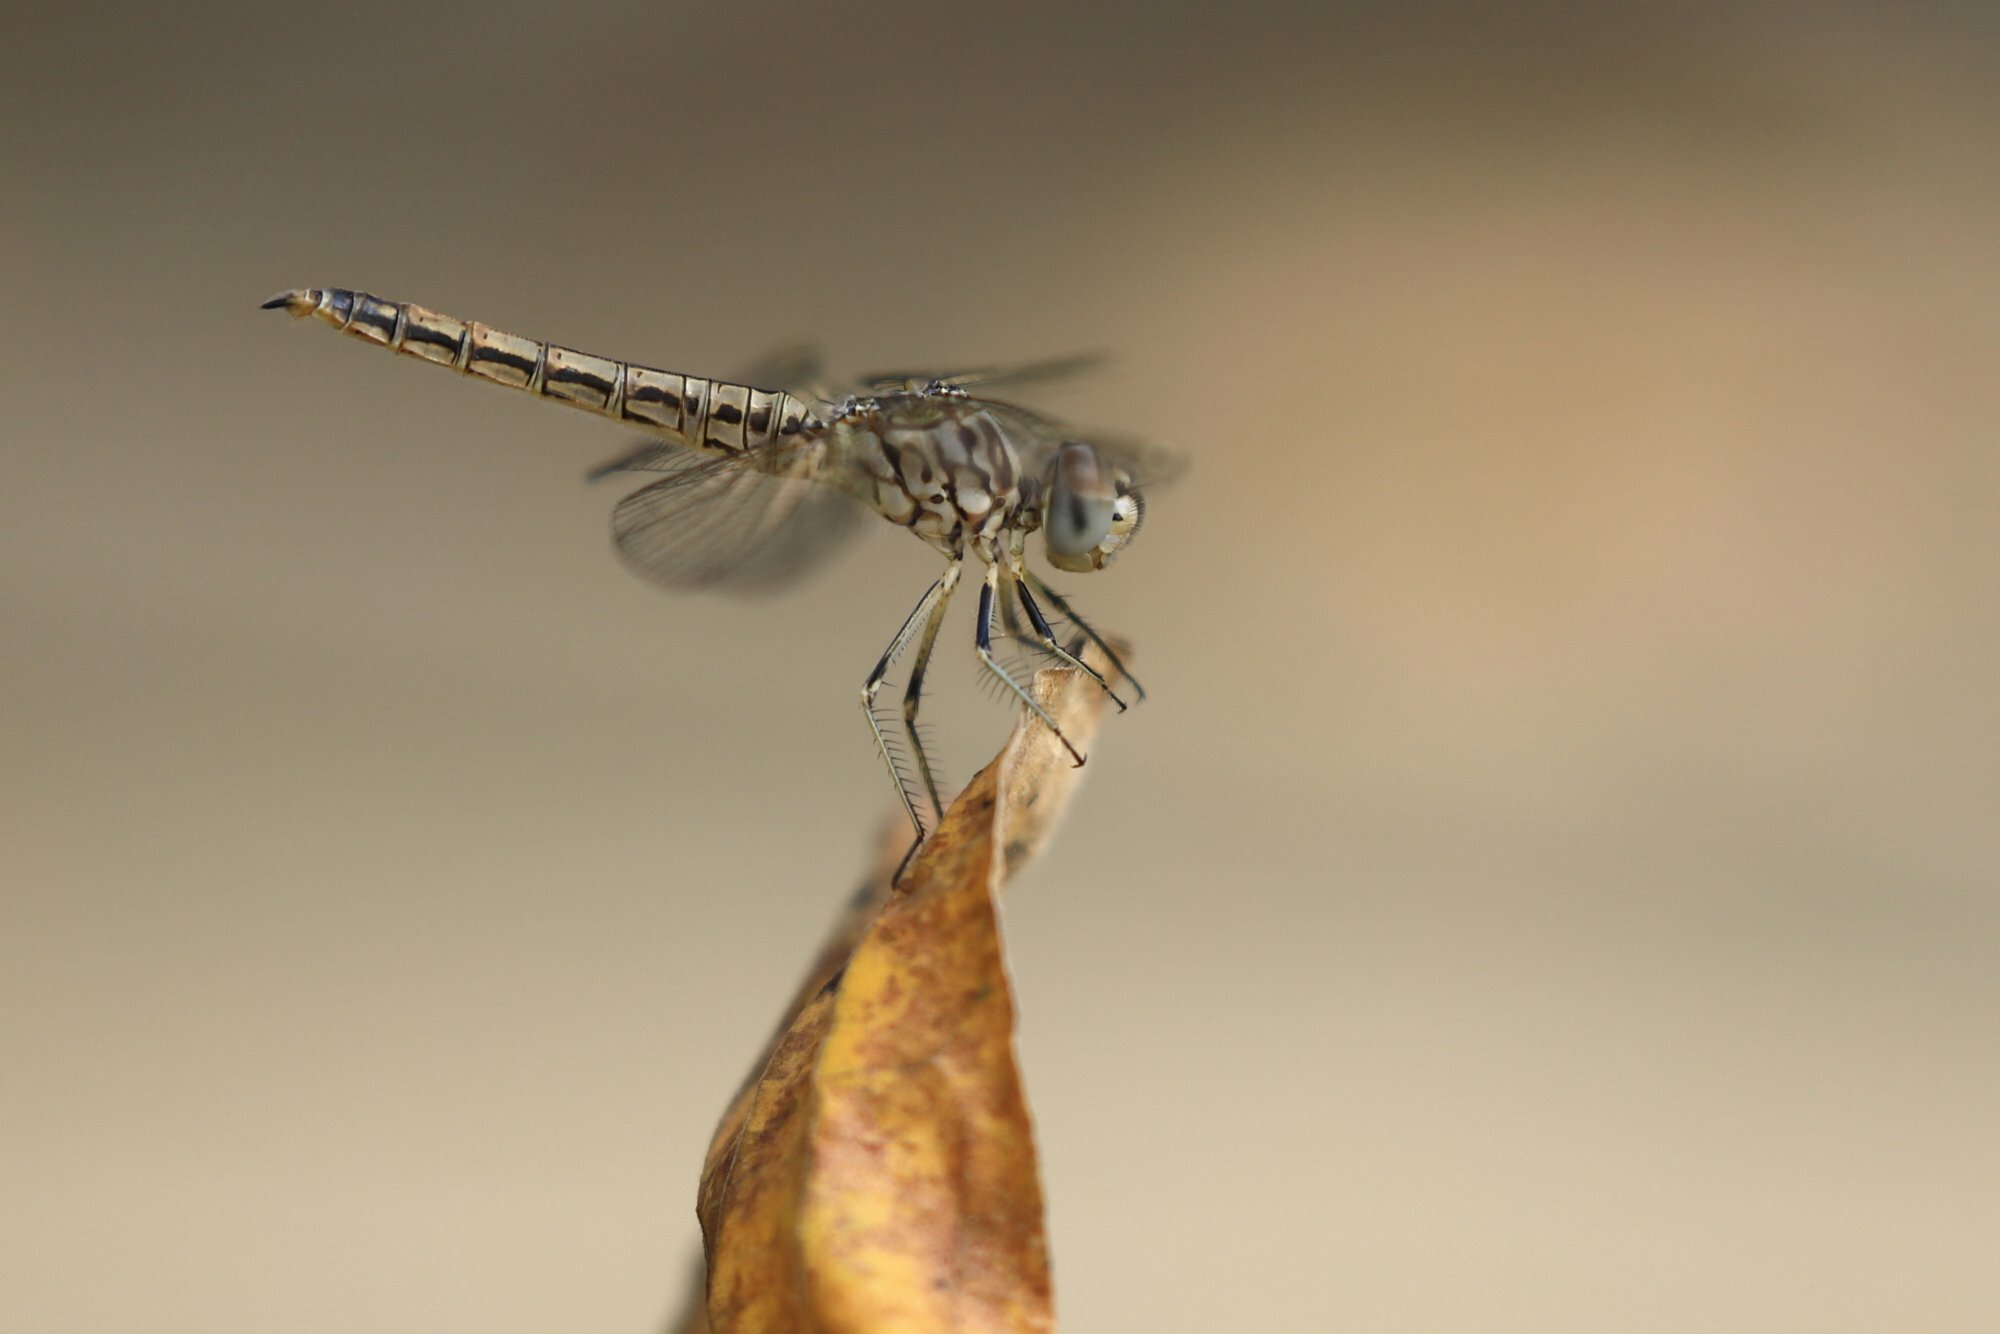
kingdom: Animalia
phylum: Arthropoda
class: Insecta
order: Odonata
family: Libellulidae
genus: Brachythemis
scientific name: Brachythemis leucosticta
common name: Banded groundling
